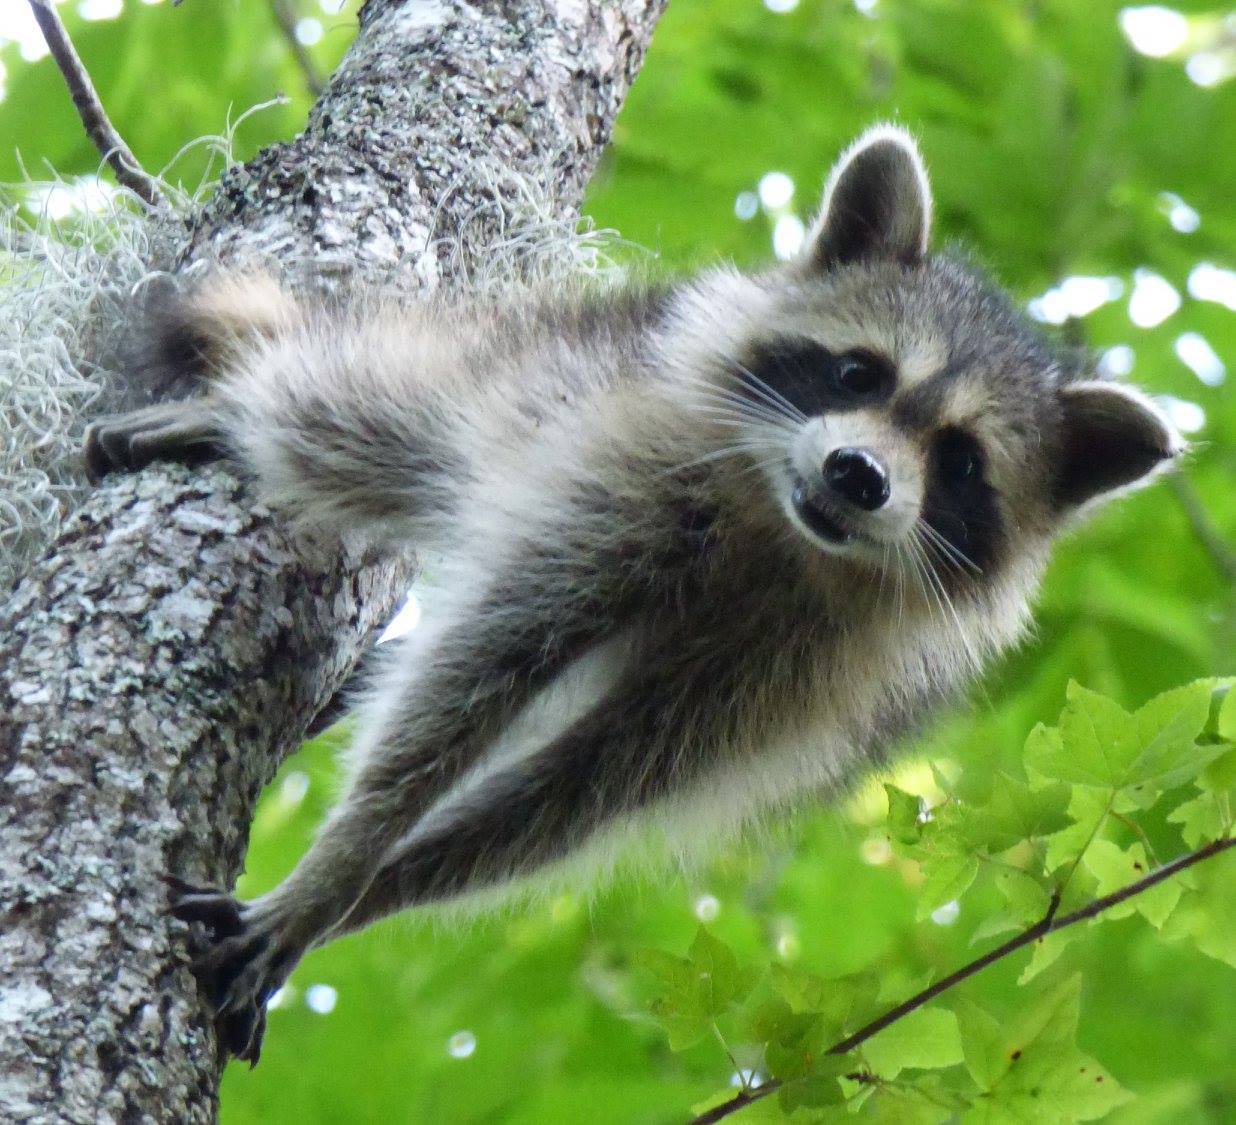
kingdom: Animalia
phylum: Chordata
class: Mammalia
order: Carnivora
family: Procyonidae
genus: Procyon
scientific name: Procyon lotor
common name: Raccoon
